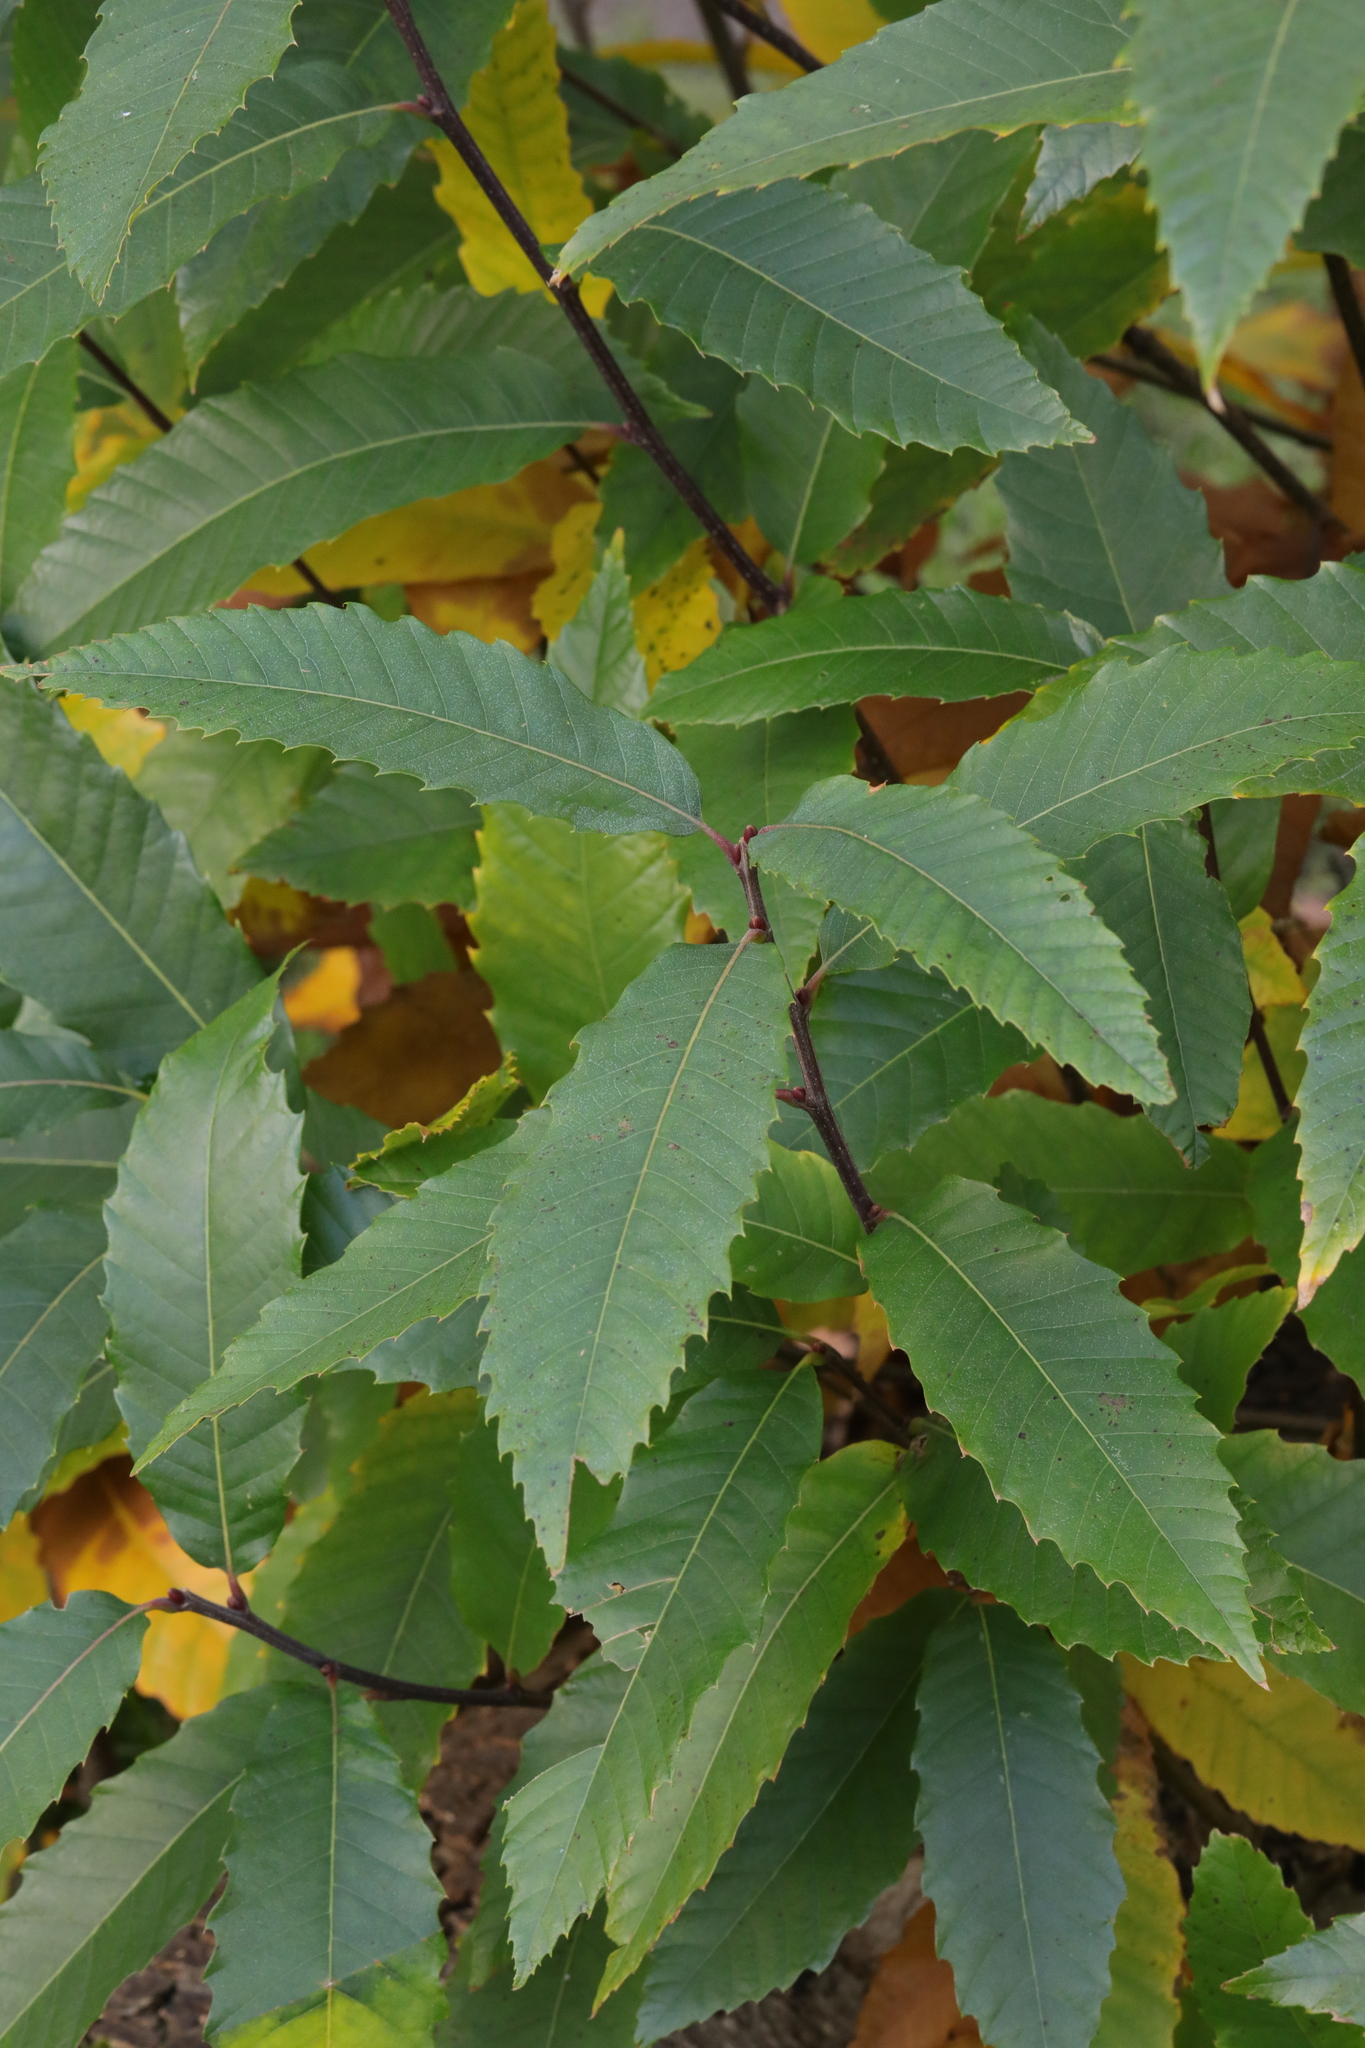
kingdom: Plantae
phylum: Tracheophyta
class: Magnoliopsida
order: Fagales
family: Fagaceae
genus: Castanea
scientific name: Castanea sativa
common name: Sweet chestnut
